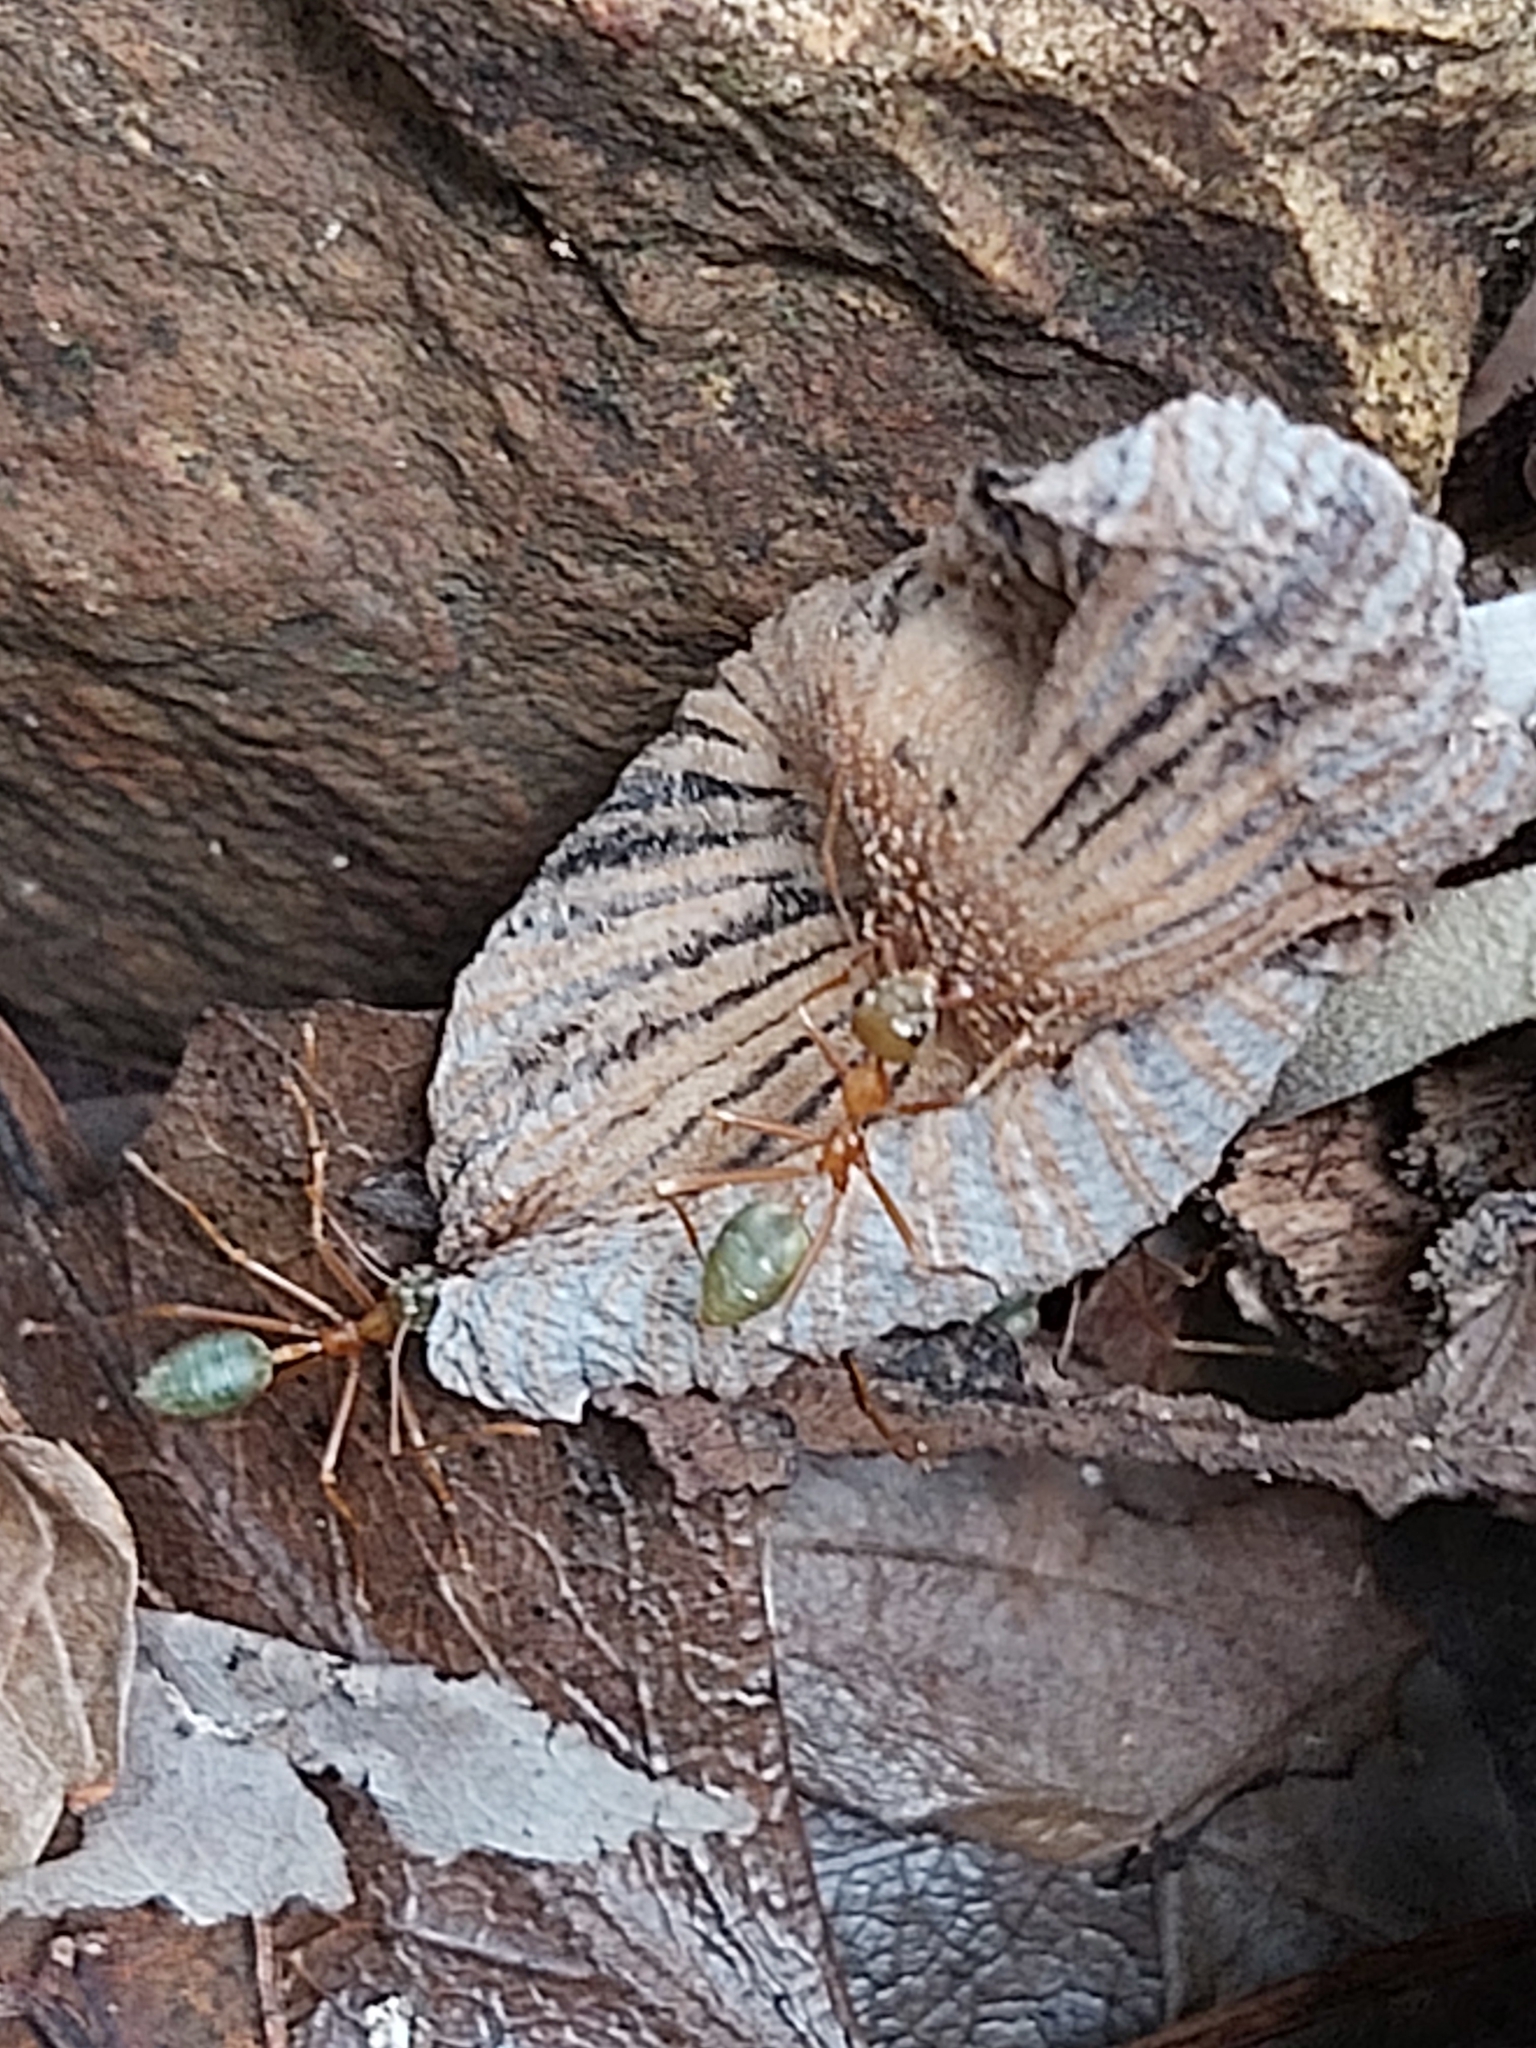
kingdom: Animalia
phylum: Arthropoda
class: Insecta
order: Hymenoptera
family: Formicidae
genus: Oecophylla
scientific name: Oecophylla smaragdina
